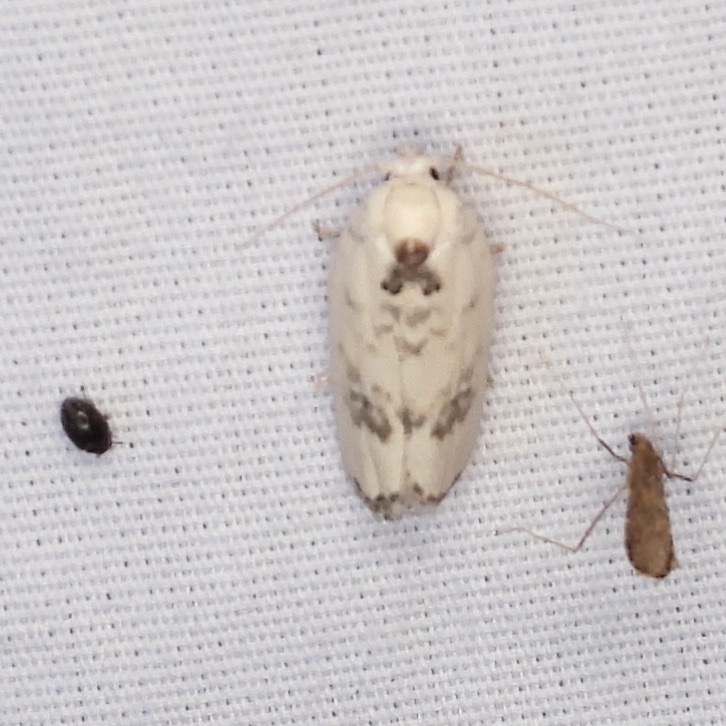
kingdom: Animalia
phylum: Arthropoda
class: Insecta
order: Lepidoptera
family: Depressariidae
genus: Antaeotricha
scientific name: Antaeotricha leucillana
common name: Pale gray bird-dropping moth
